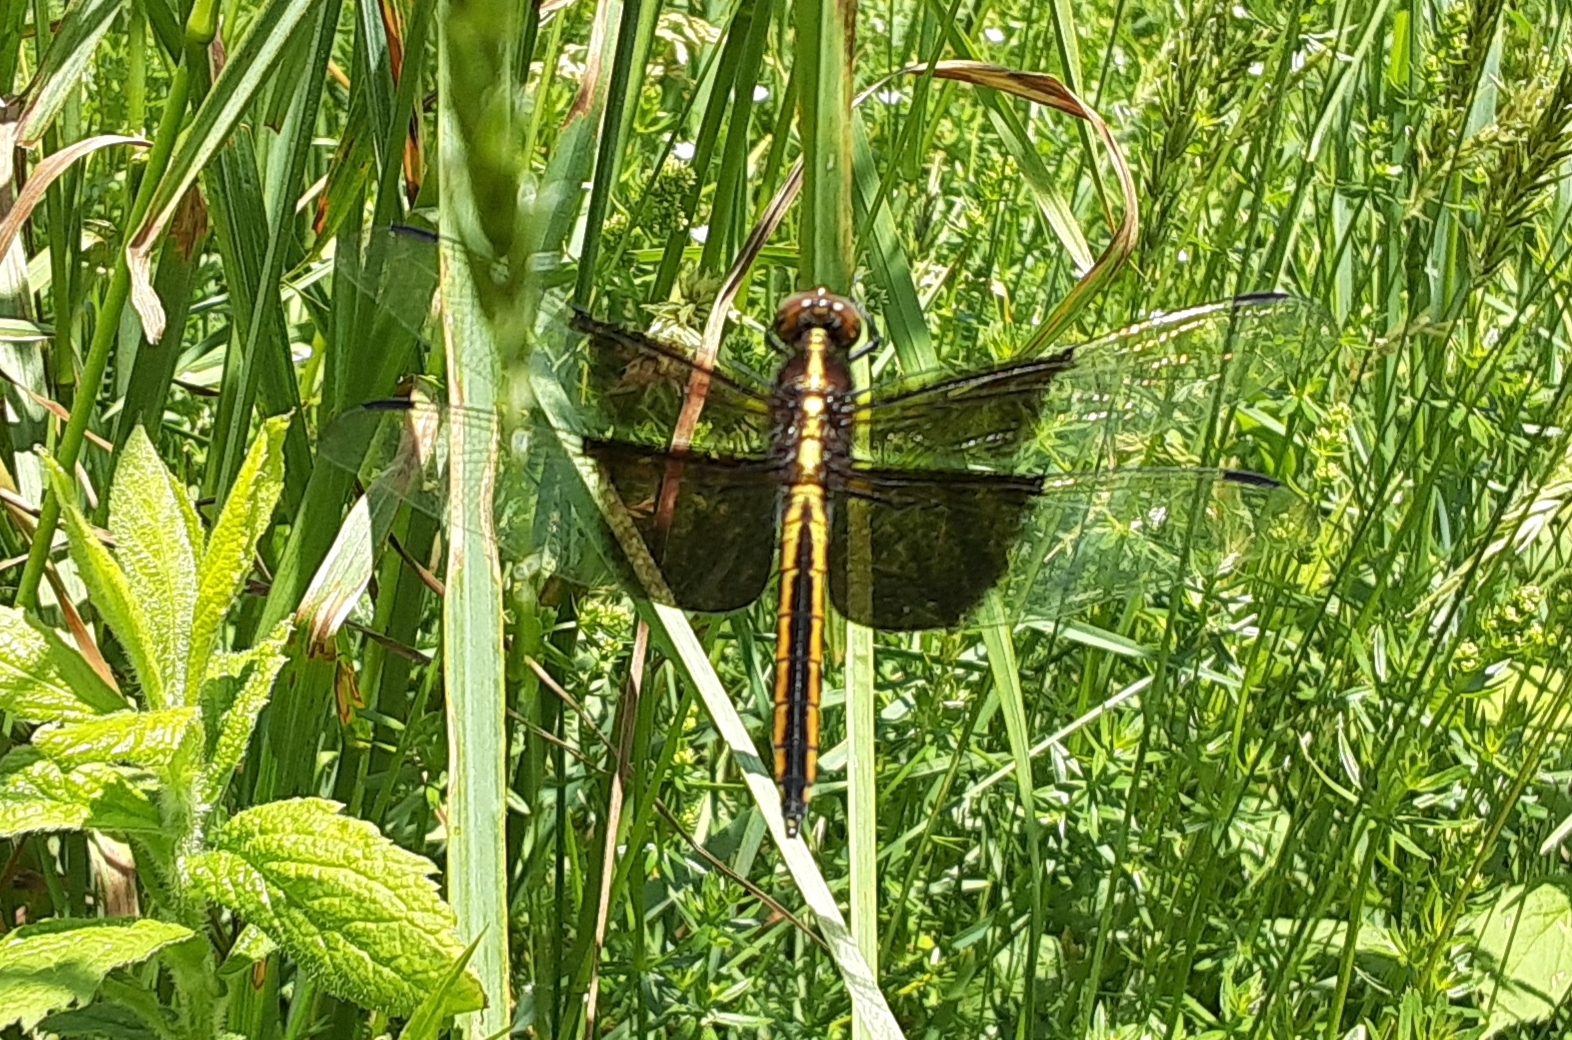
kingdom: Animalia
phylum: Arthropoda
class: Insecta
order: Odonata
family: Libellulidae
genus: Libellula
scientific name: Libellula luctuosa
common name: Widow skimmer
